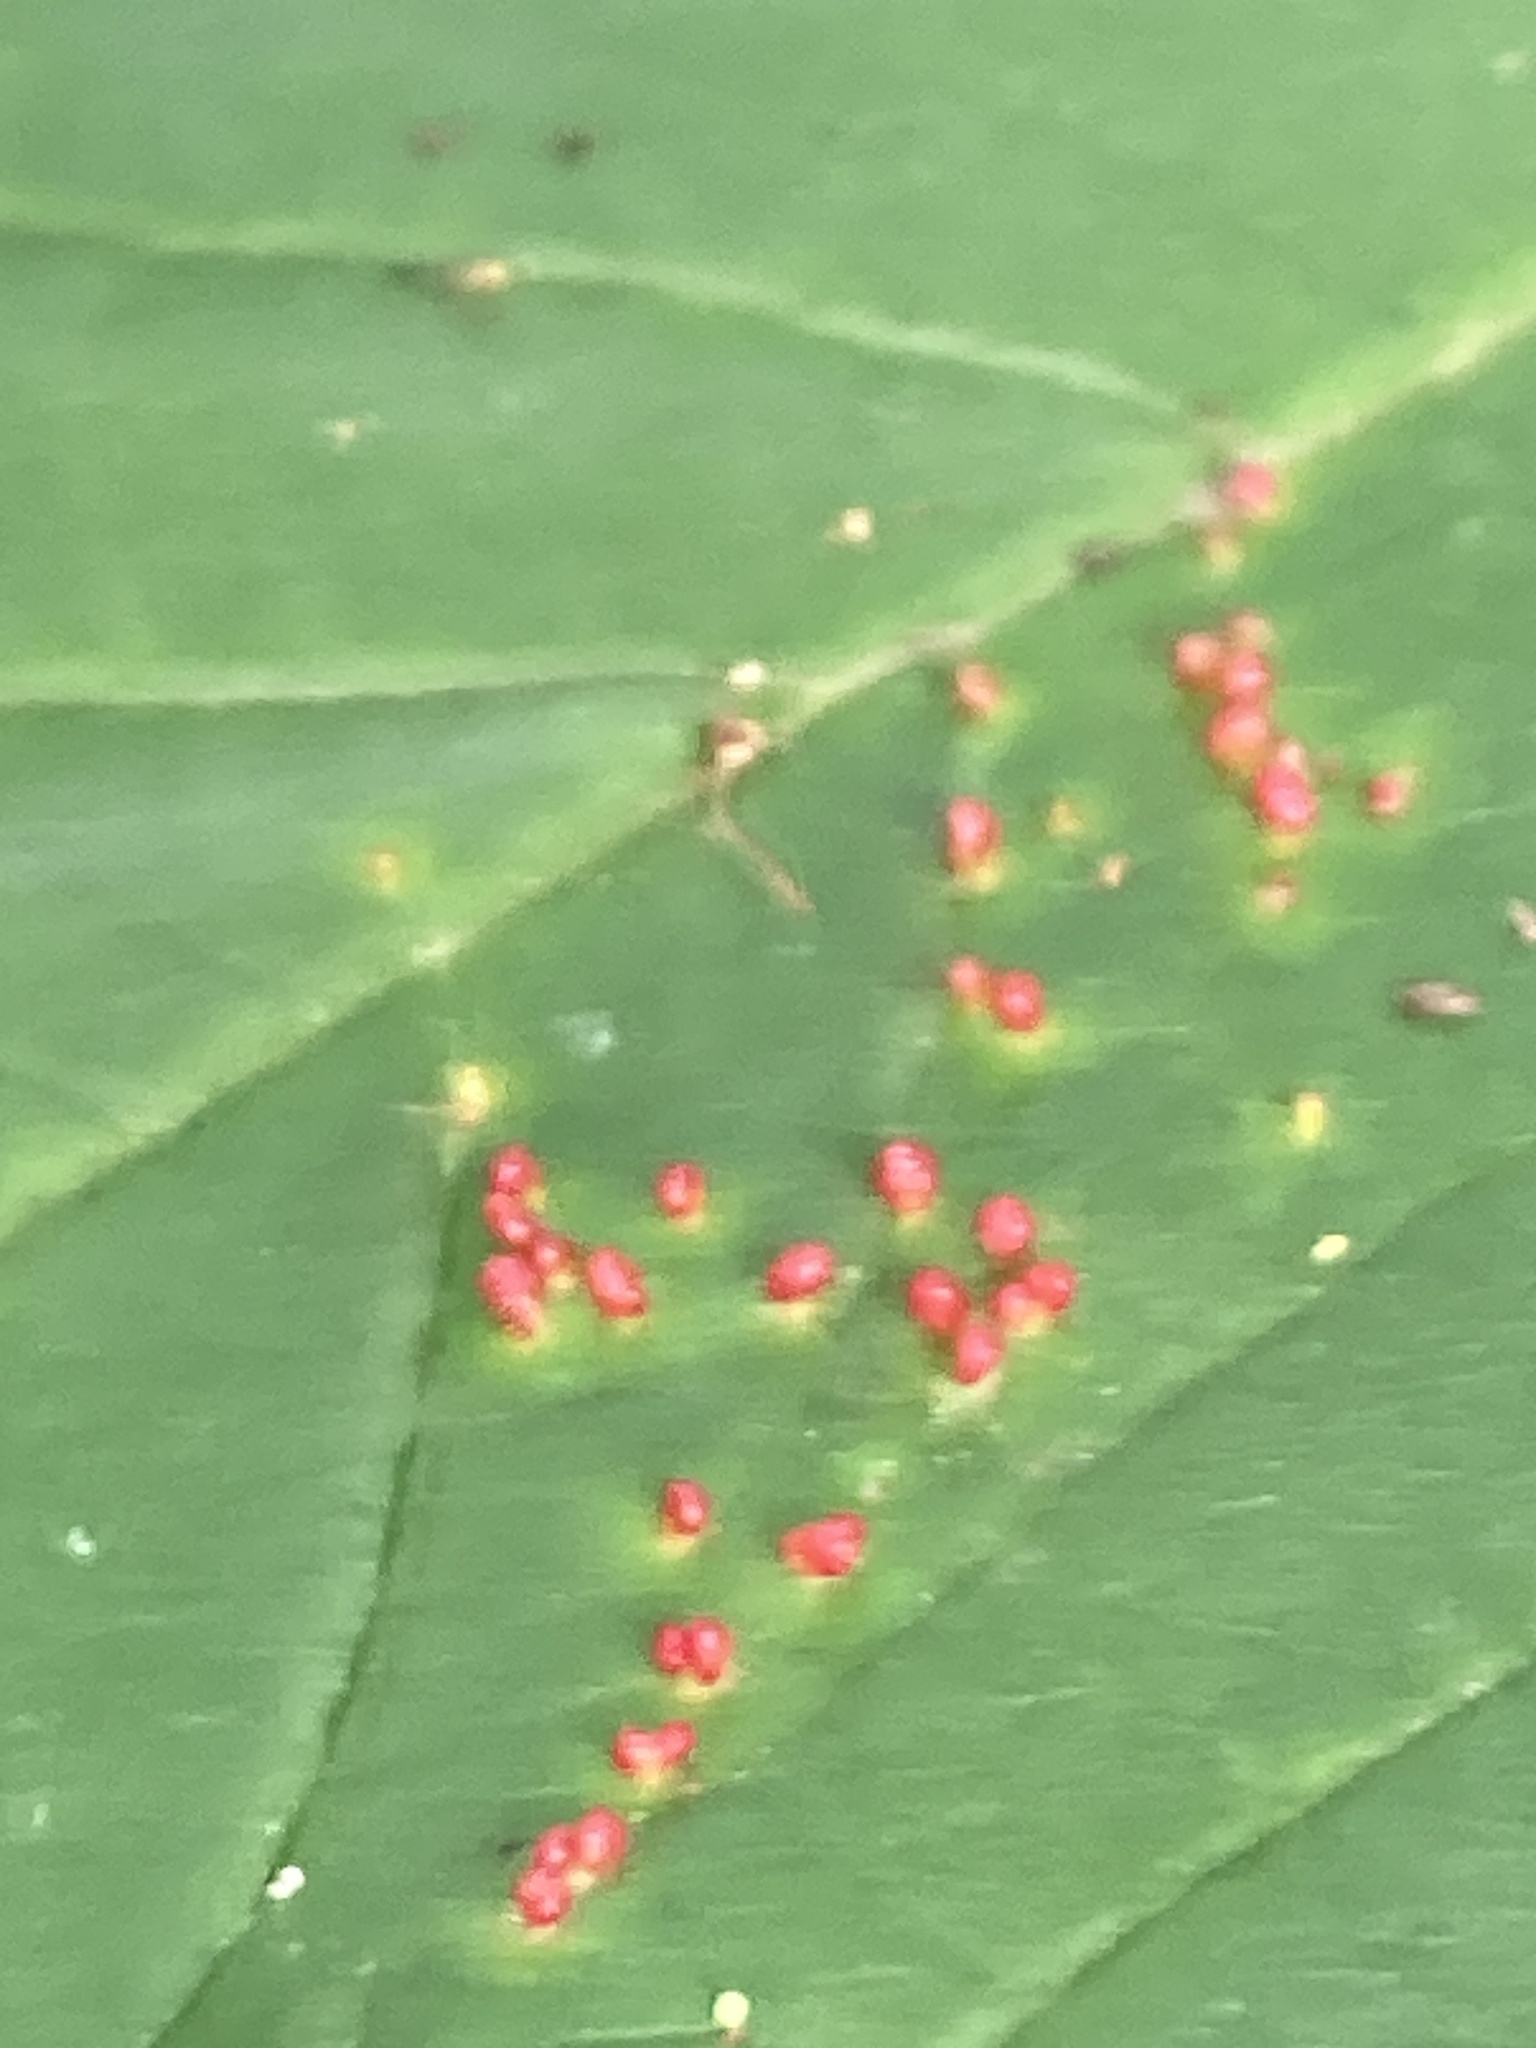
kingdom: Animalia
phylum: Arthropoda
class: Arachnida
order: Trombidiformes
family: Eriophyidae
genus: Aceria
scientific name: Aceria cephaloneus
